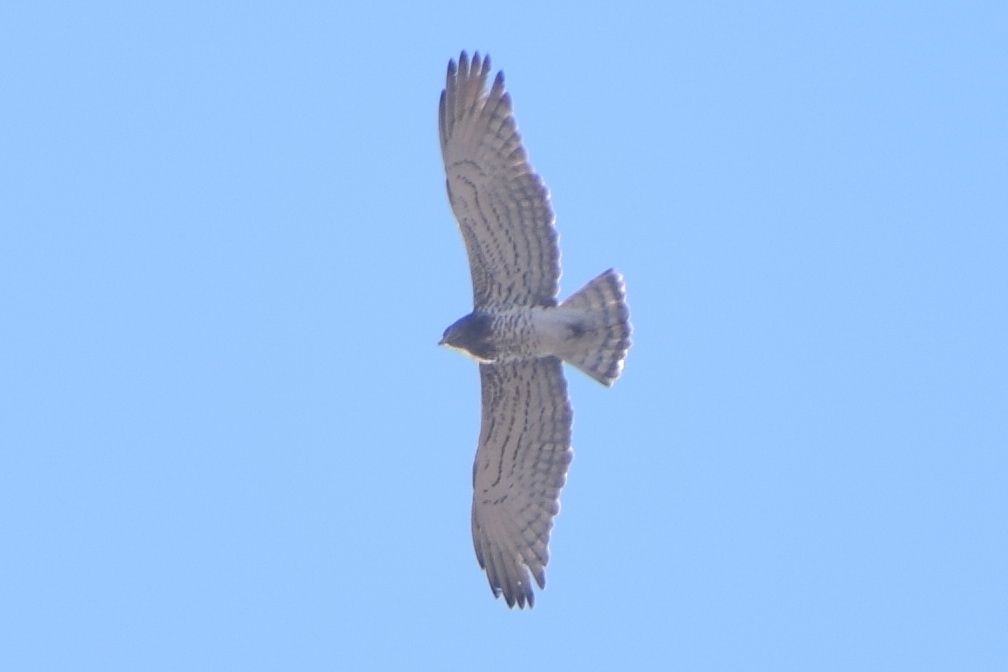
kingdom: Animalia
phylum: Chordata
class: Aves
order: Accipitriformes
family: Accipitridae
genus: Circaetus
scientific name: Circaetus gallicus
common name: Short-toed snake eagle
